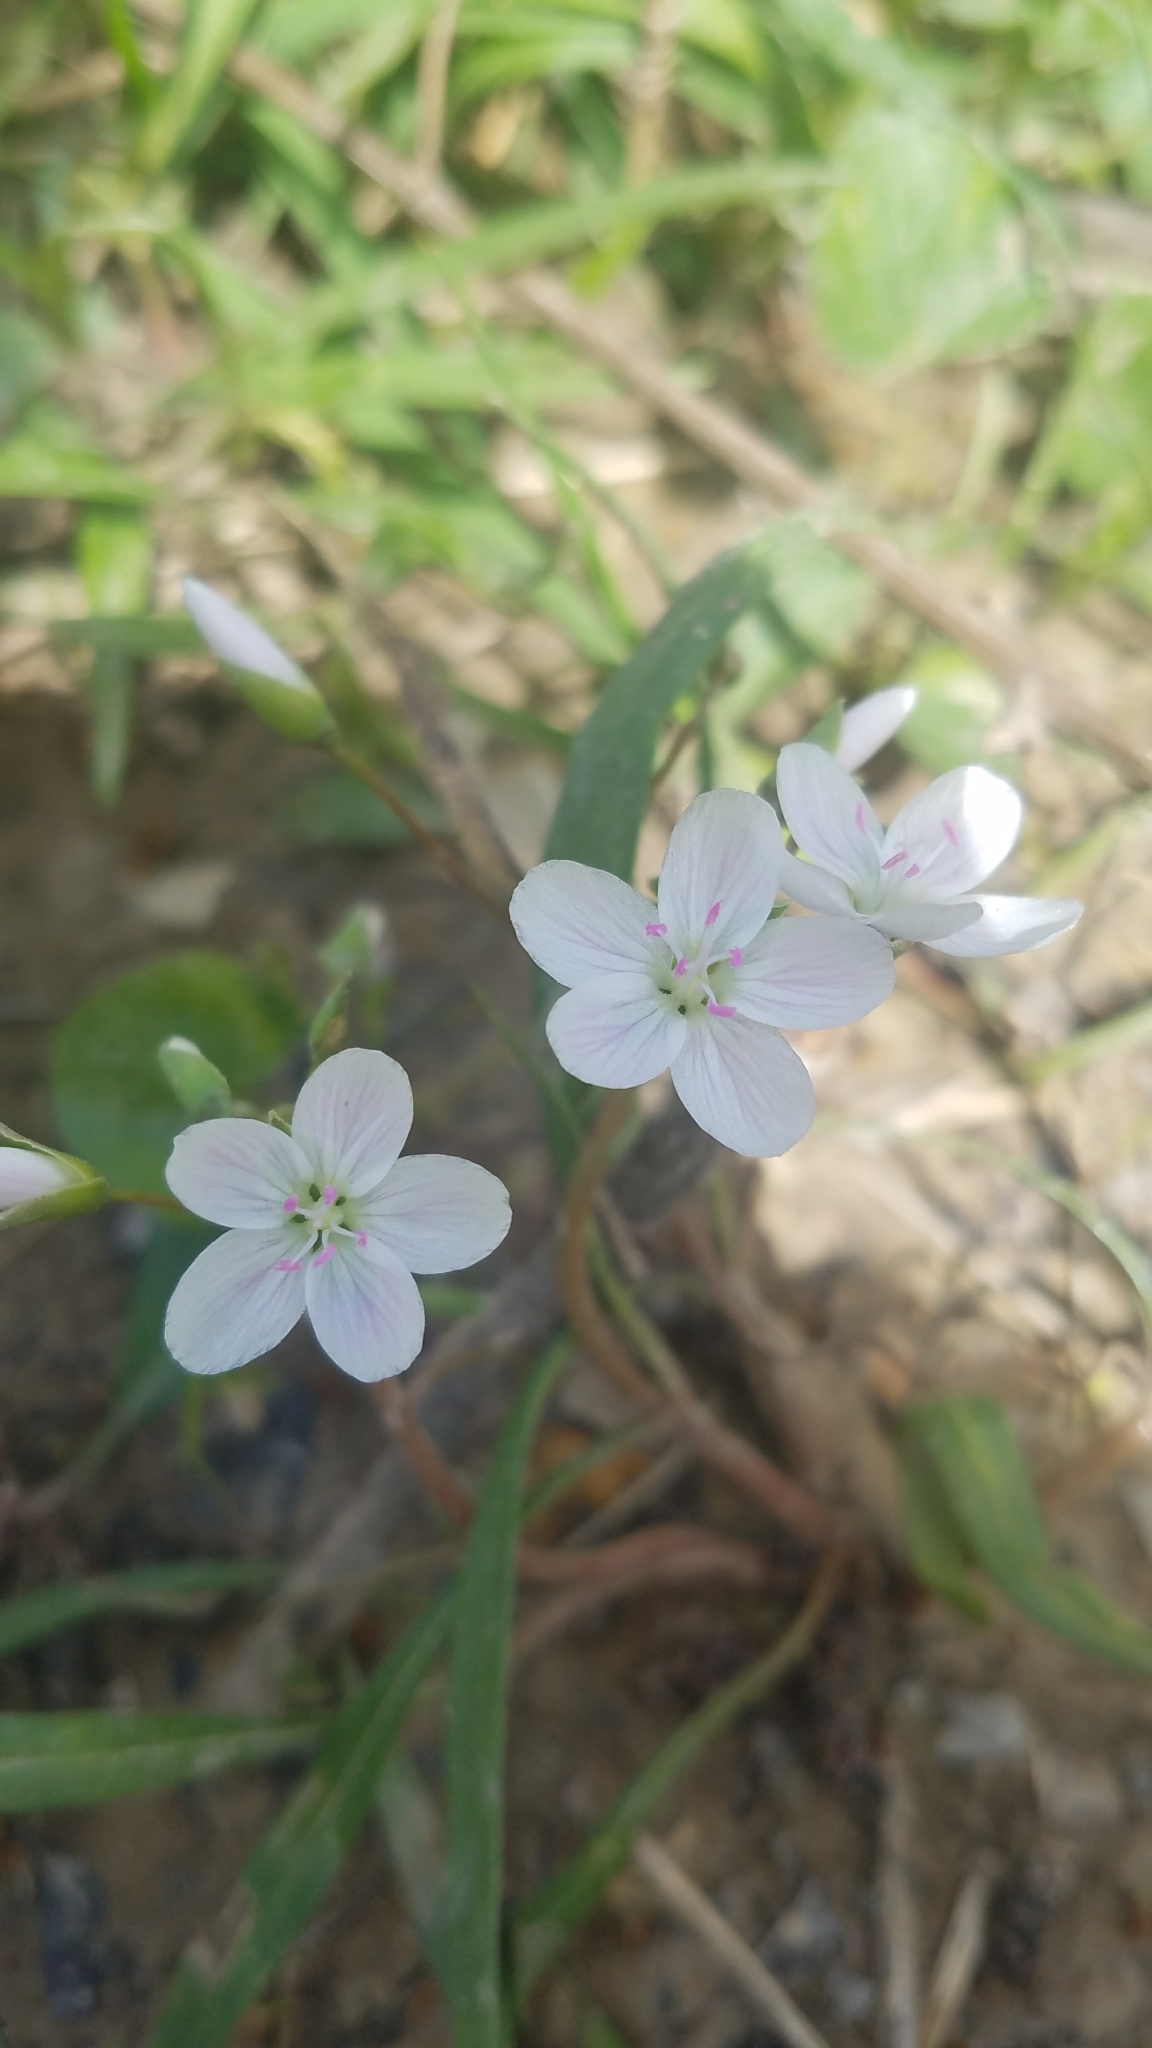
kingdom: Plantae
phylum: Tracheophyta
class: Magnoliopsida
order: Caryophyllales
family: Montiaceae
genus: Claytonia
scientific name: Claytonia virginica
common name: Virginia springbeauty
